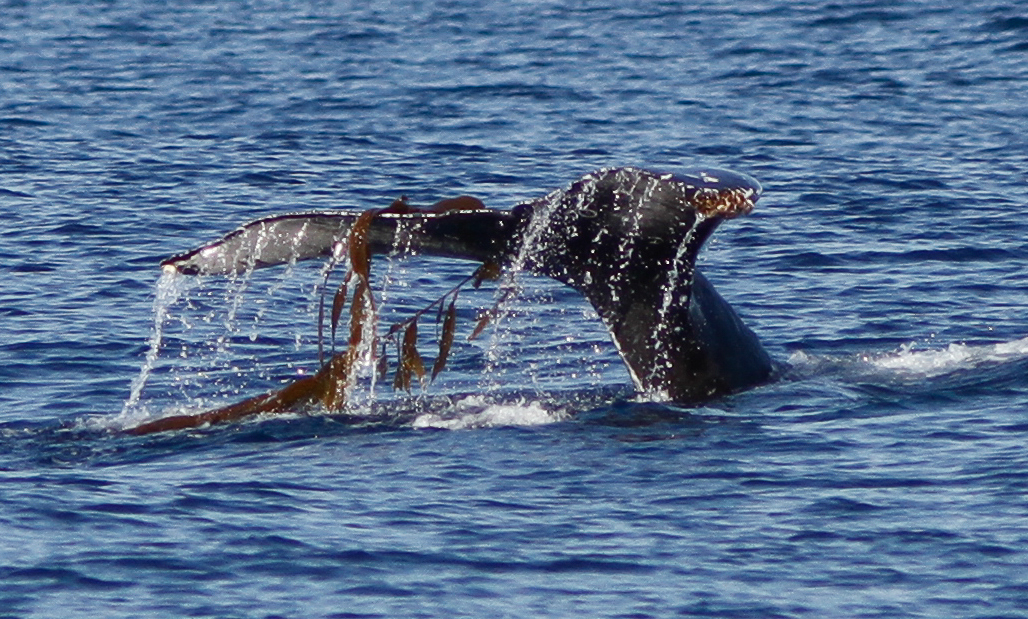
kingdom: Chromista
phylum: Ochrophyta
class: Phaeophyceae
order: Laminariales
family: Laminariaceae
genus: Macrocystis
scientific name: Macrocystis pyrifera
